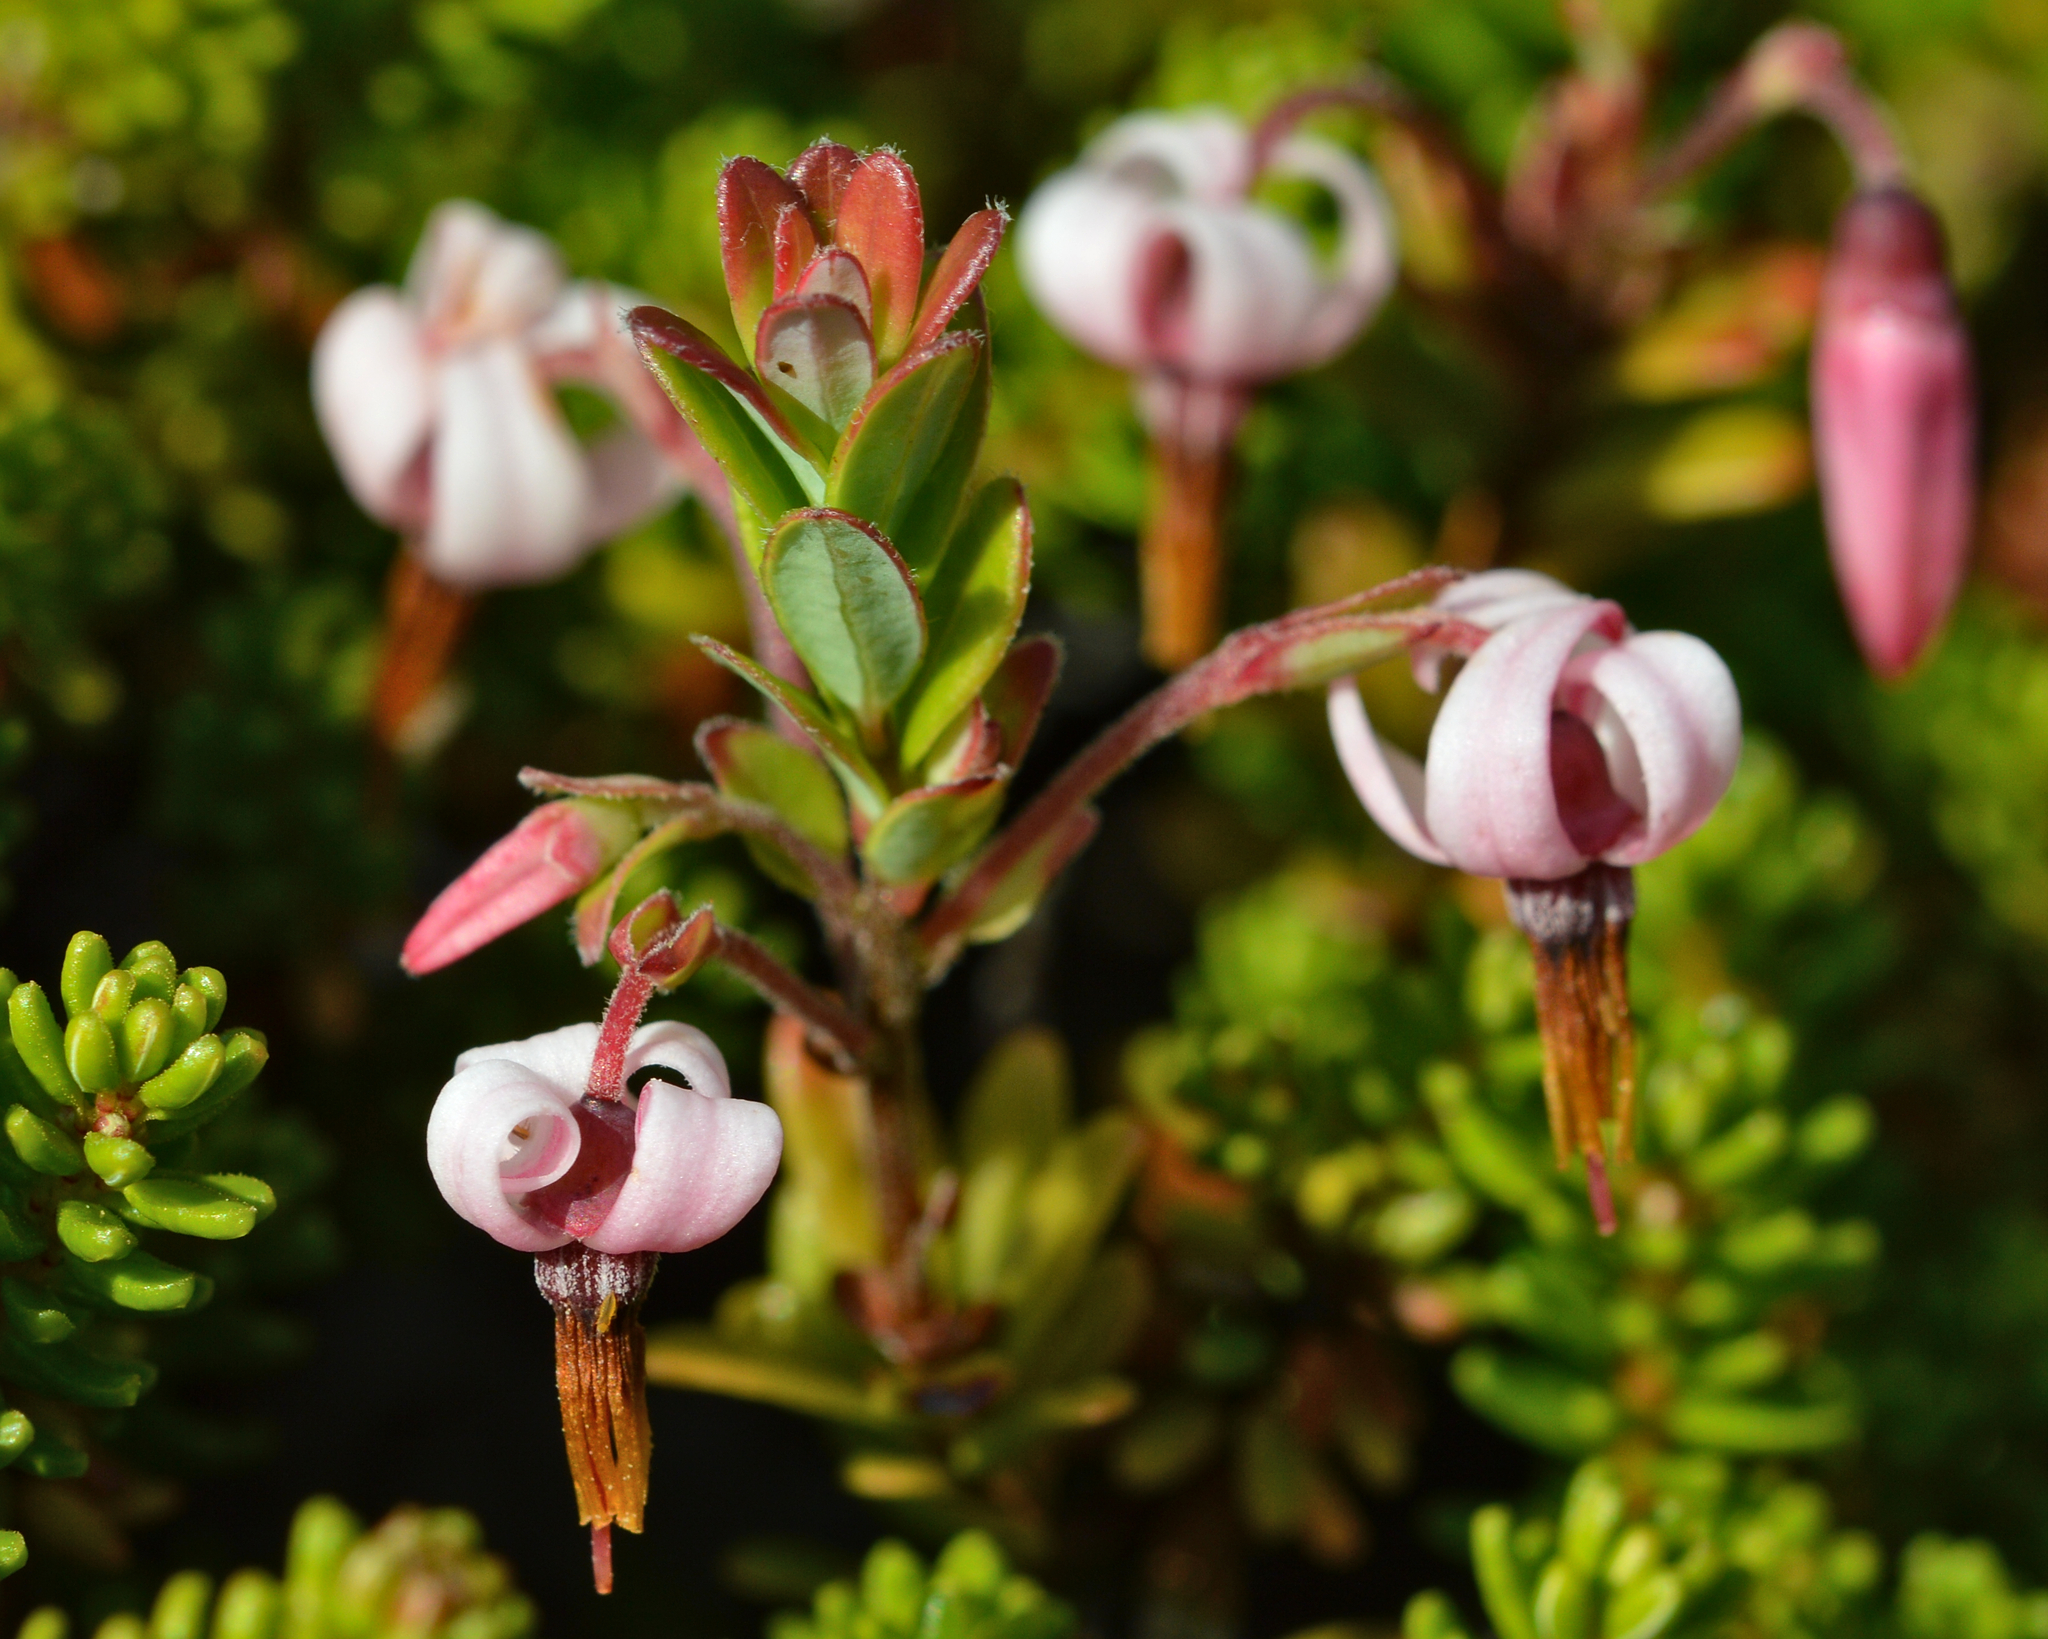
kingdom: Plantae
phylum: Tracheophyta
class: Magnoliopsida
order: Ericales
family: Ericaceae
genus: Vaccinium
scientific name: Vaccinium macrocarpon
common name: American cranberry
